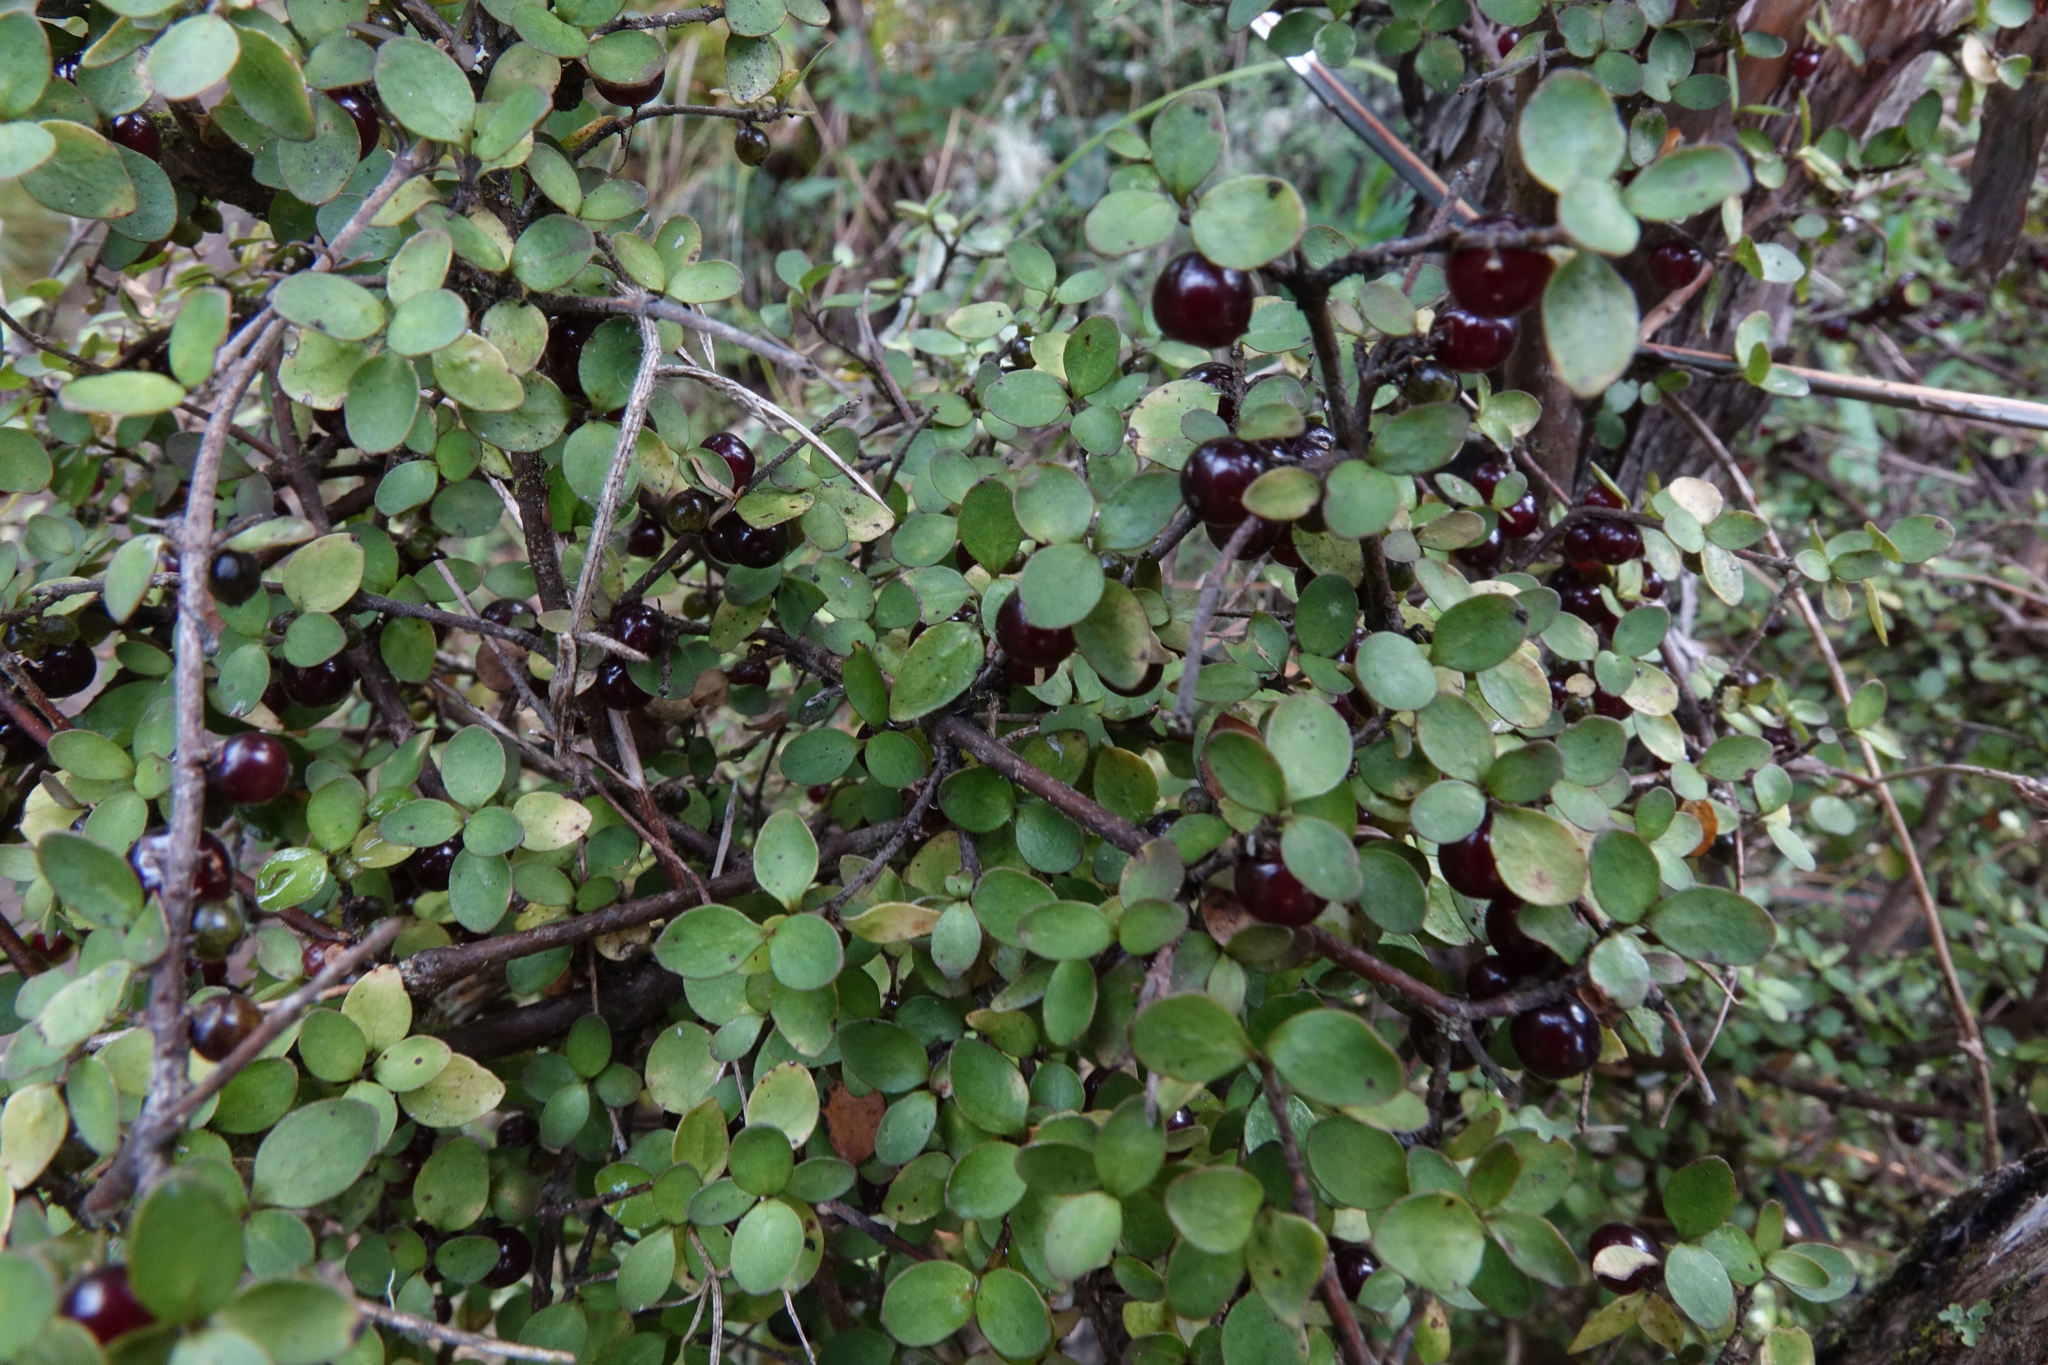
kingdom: Plantae
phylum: Tracheophyta
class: Magnoliopsida
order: Gentianales
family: Rubiaceae
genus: Coprosma
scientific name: Coprosma rhamnoides
